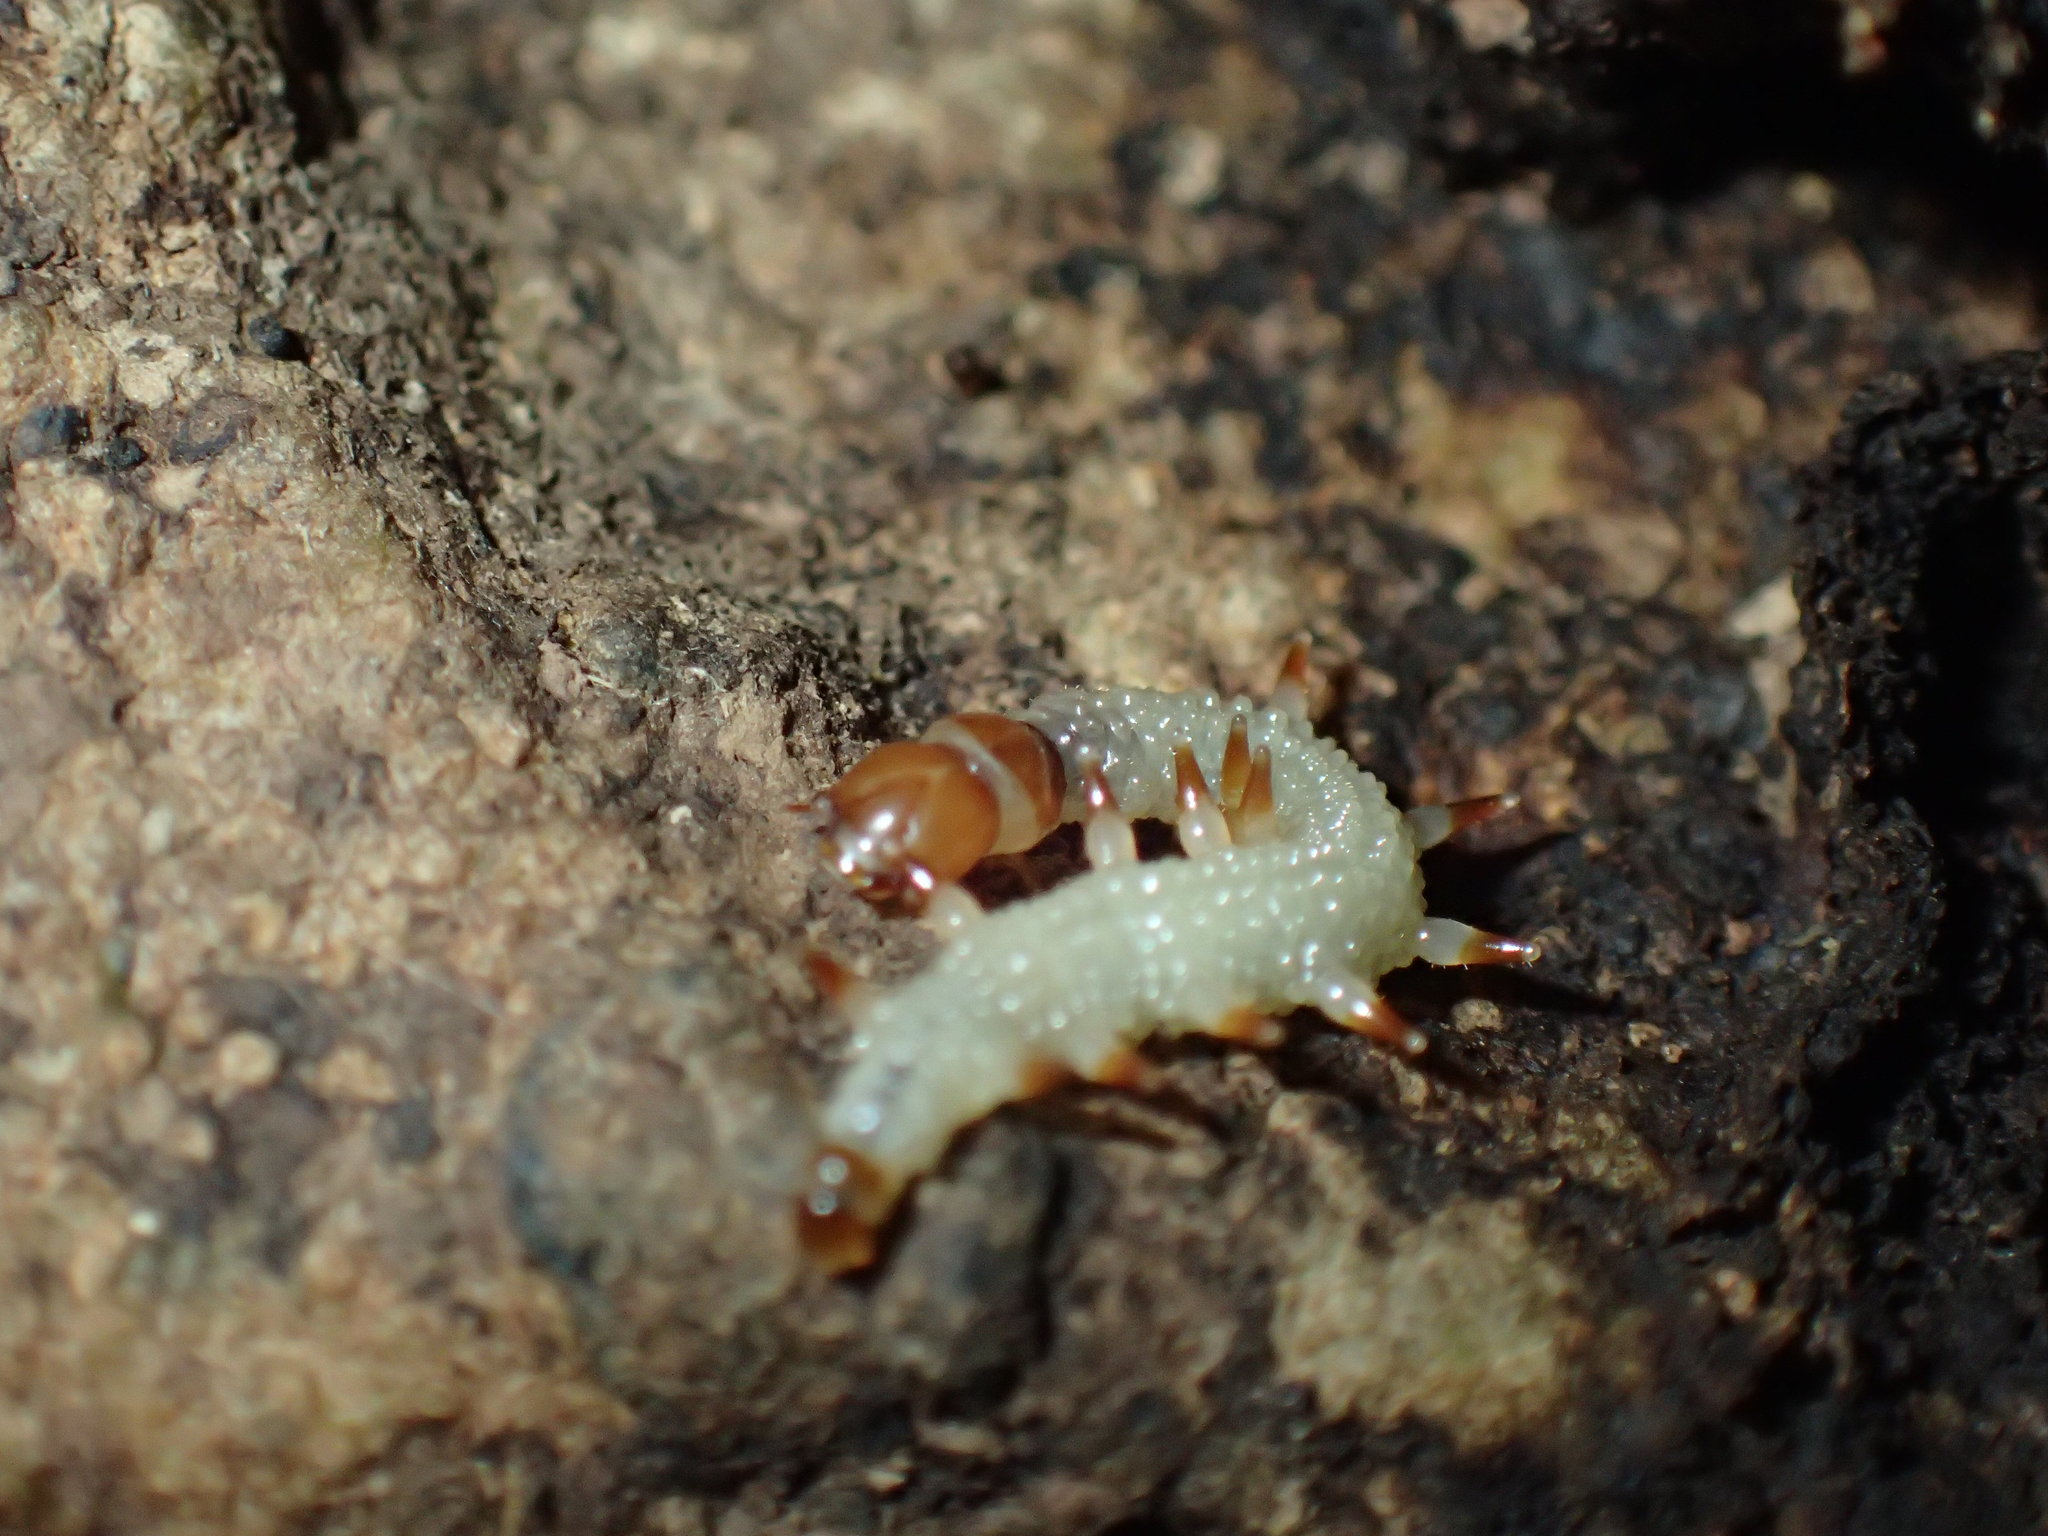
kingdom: Animalia
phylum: Arthropoda
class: Insecta
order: Lepidoptera
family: Tineidae
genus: Acridotarsa
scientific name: Acridotarsa melipecta
